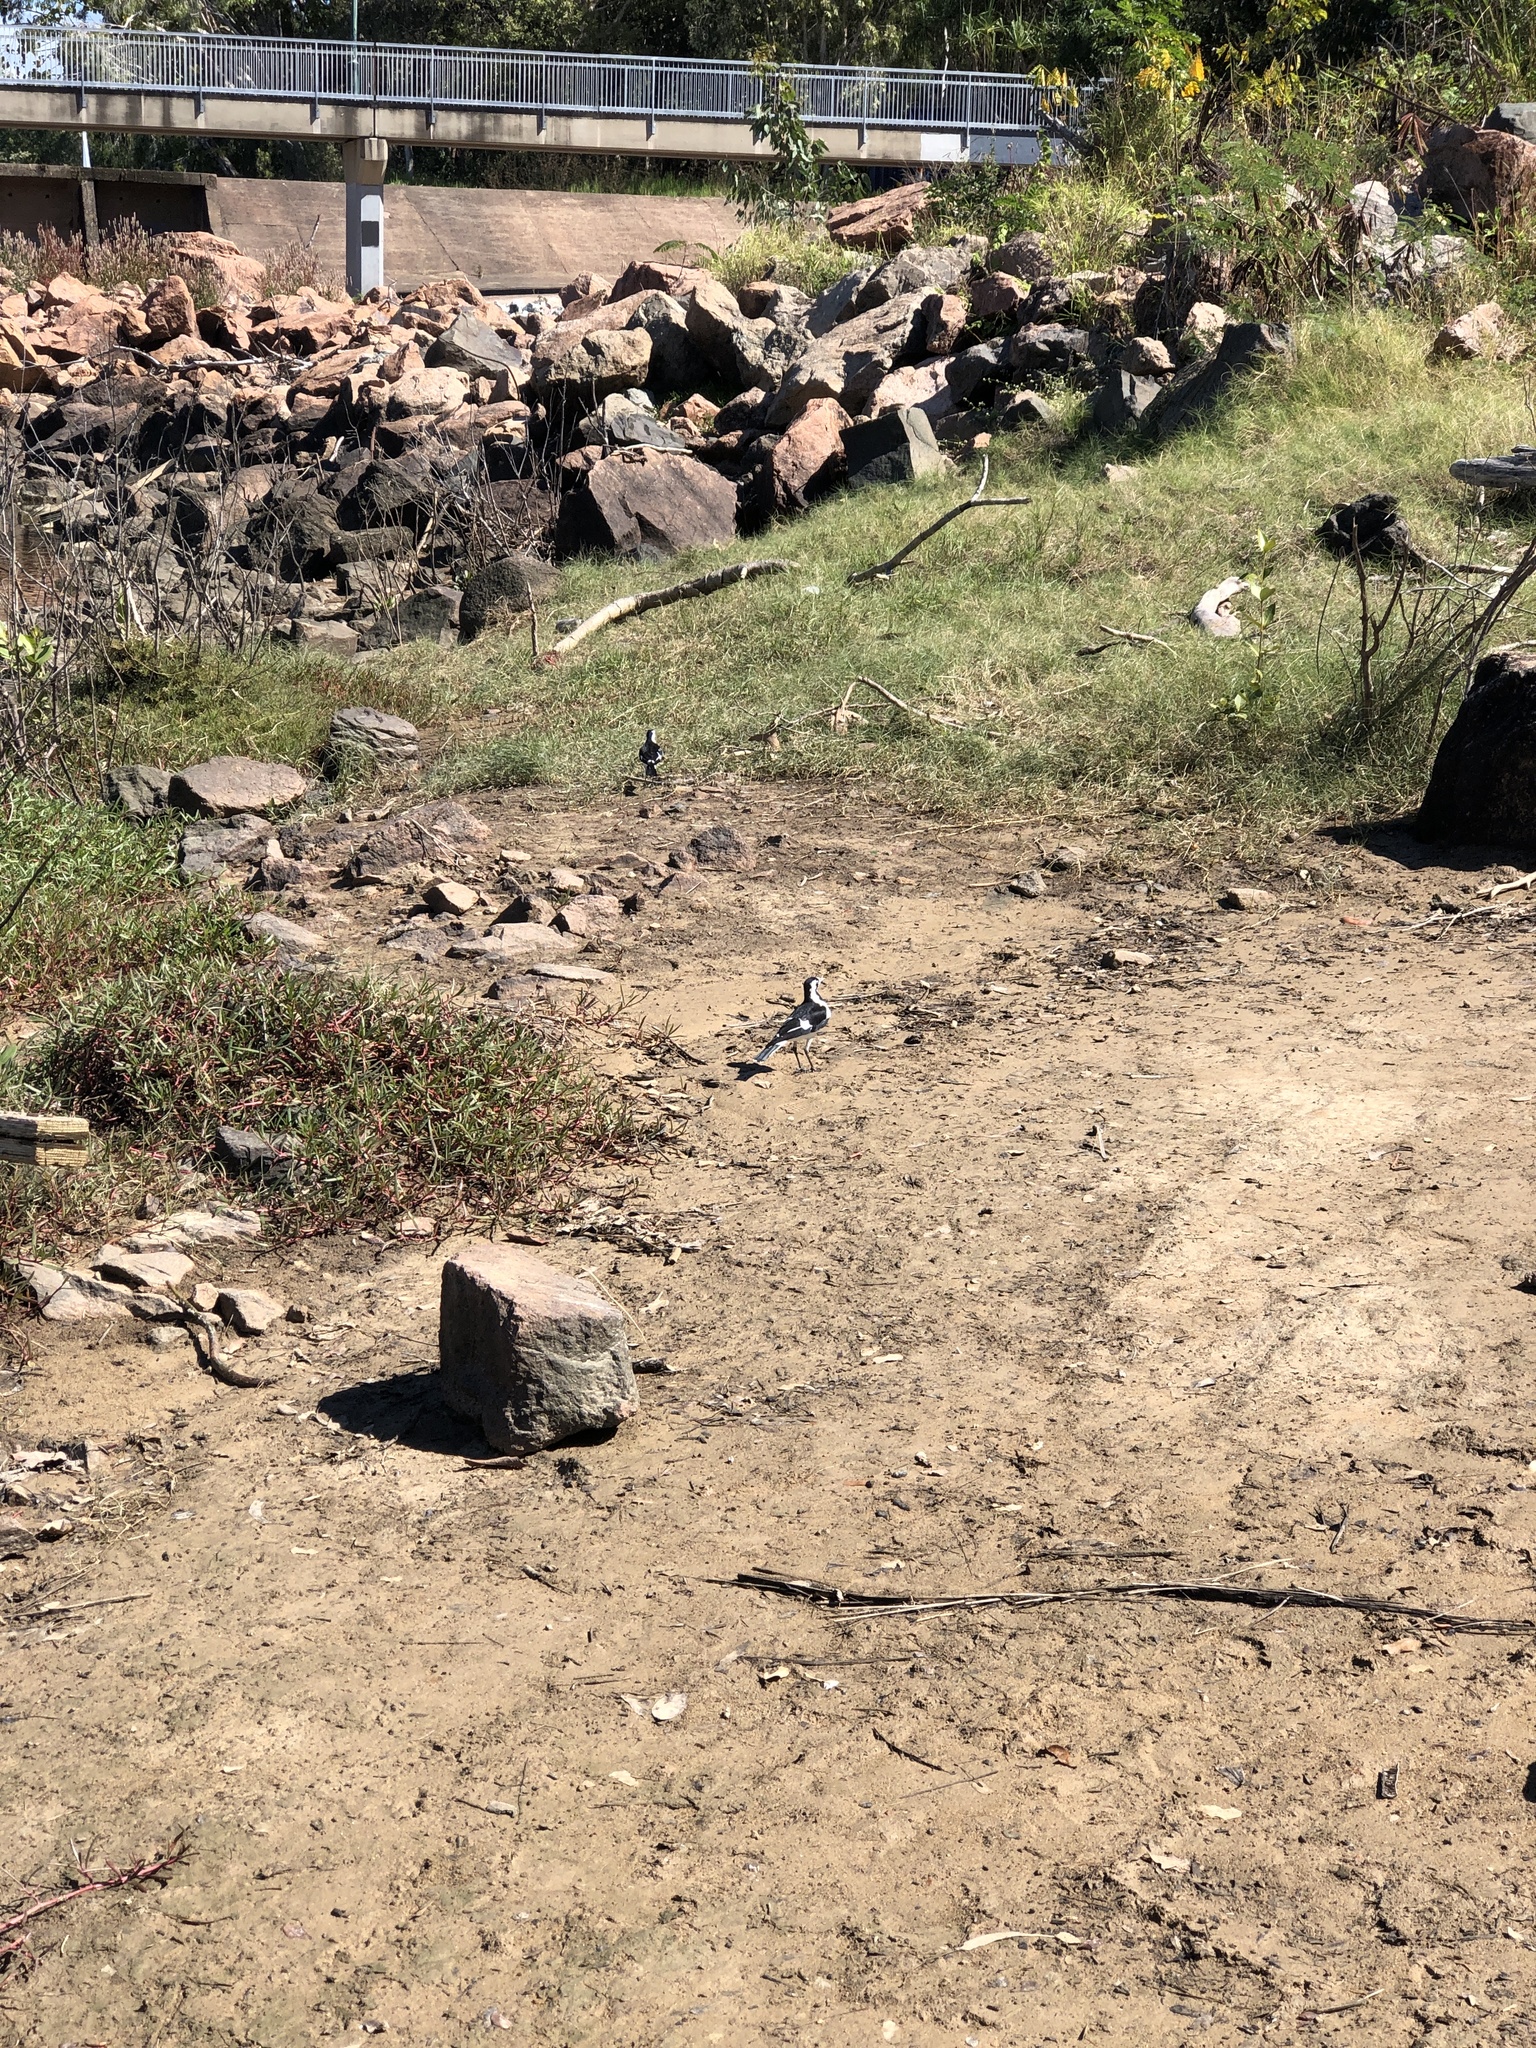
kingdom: Animalia
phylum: Chordata
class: Aves
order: Passeriformes
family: Monarchidae
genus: Grallina
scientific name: Grallina cyanoleuca
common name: Magpie-lark
